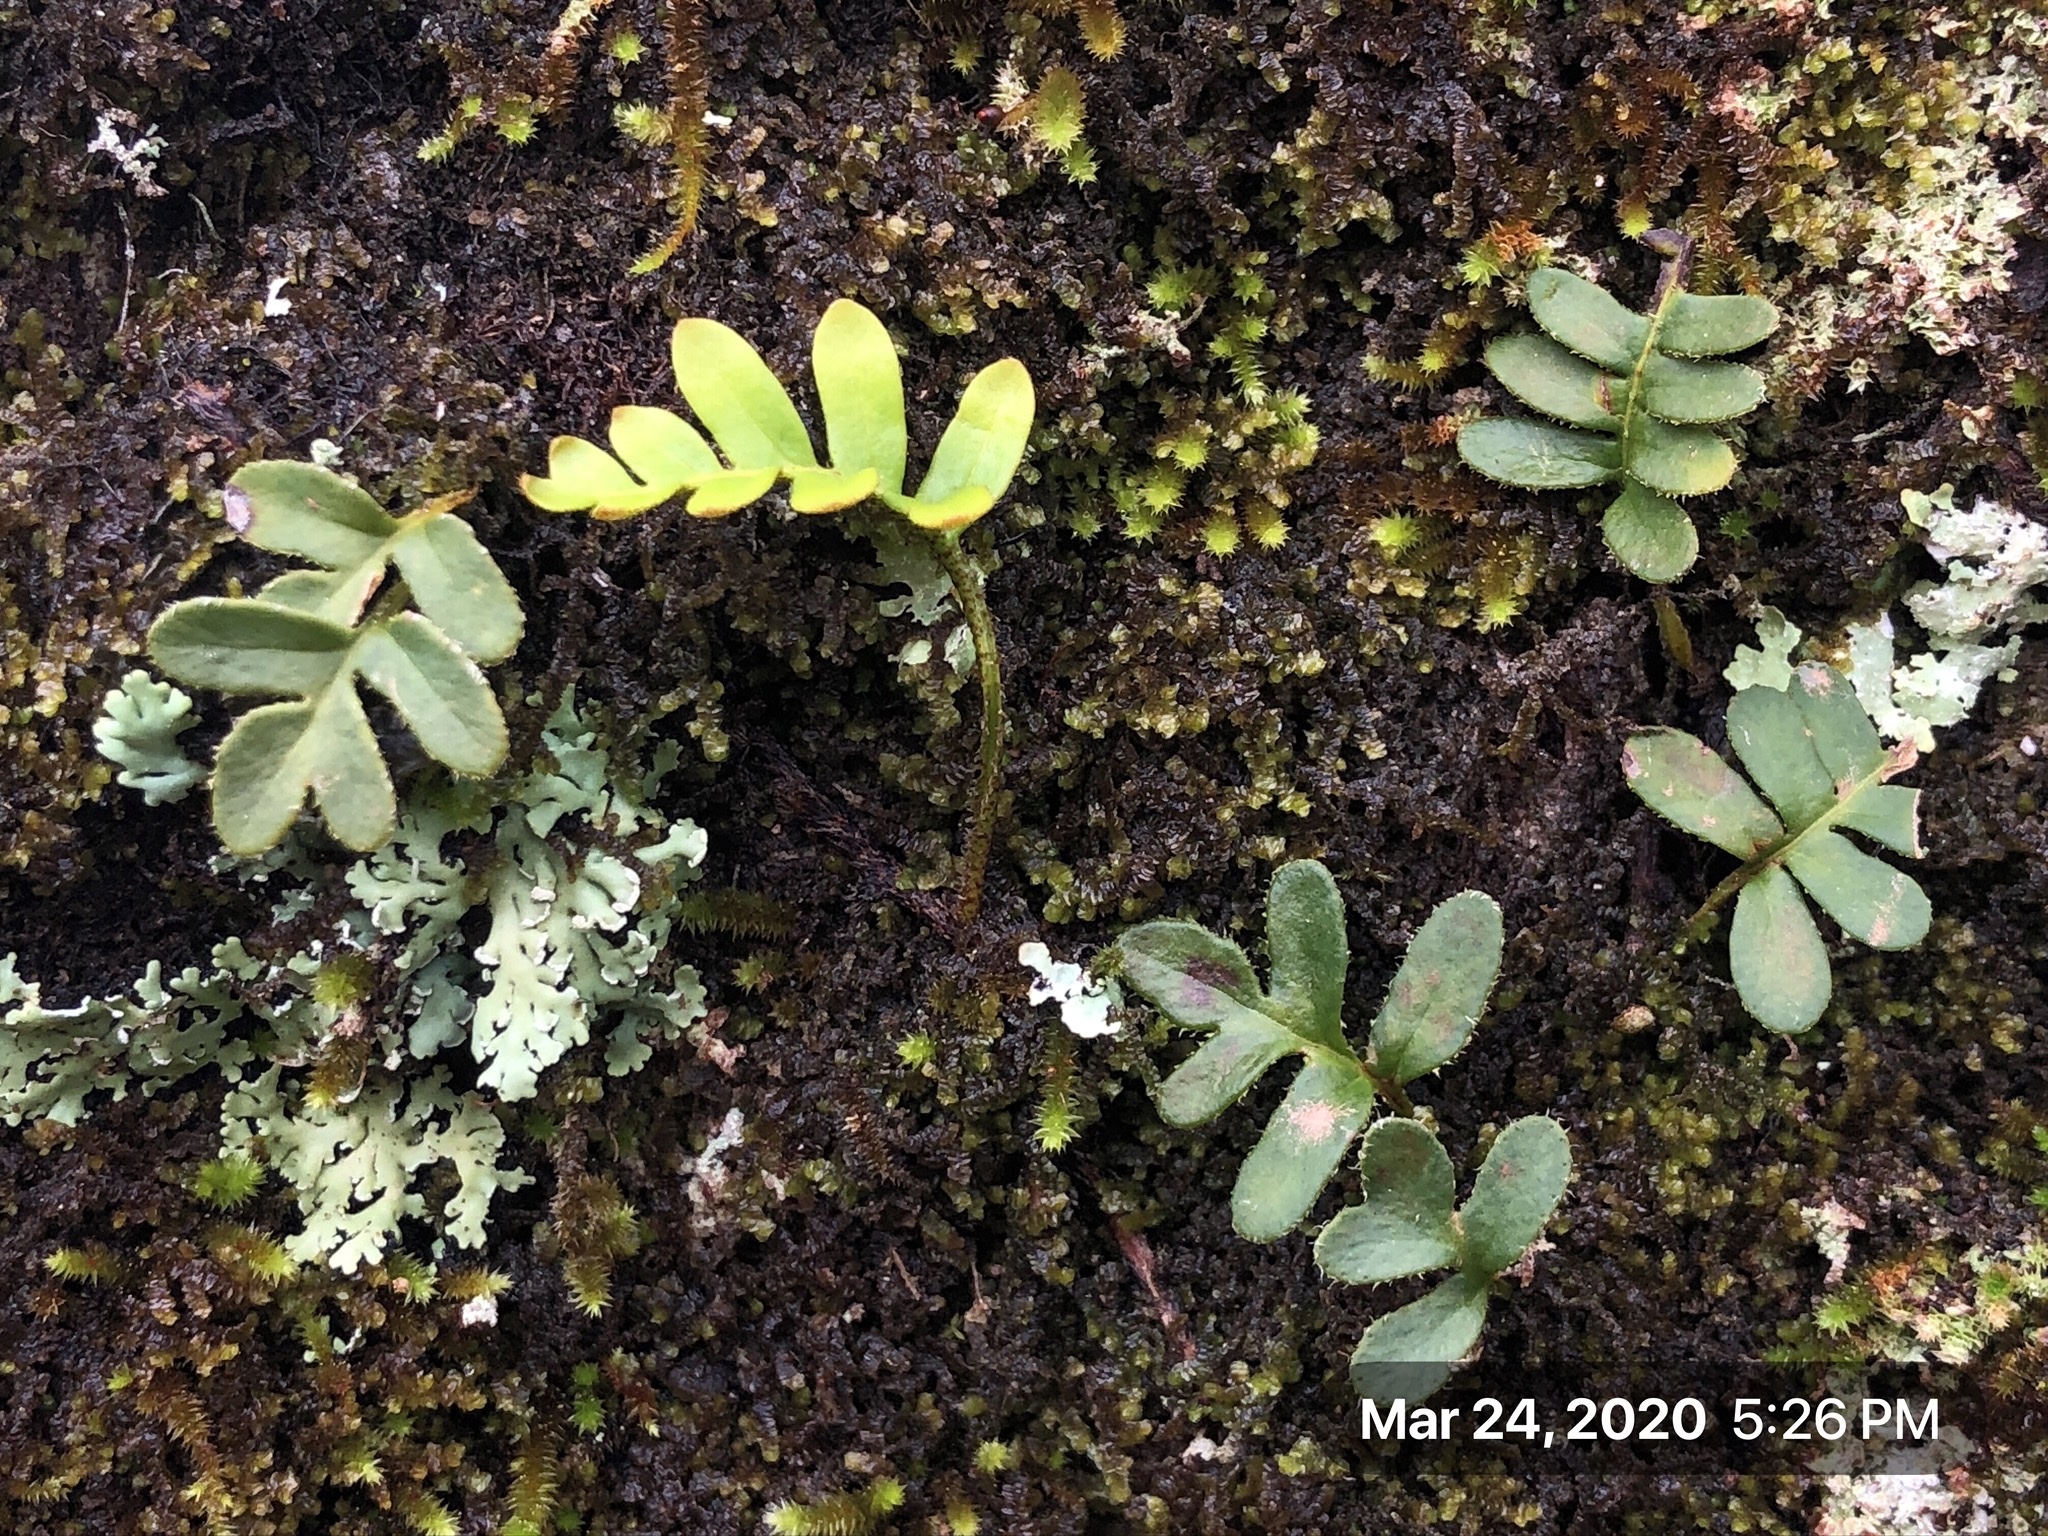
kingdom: Plantae
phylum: Tracheophyta
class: Polypodiopsida
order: Polypodiales
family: Polypodiaceae
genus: Pleopeltis
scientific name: Pleopeltis michauxiana
